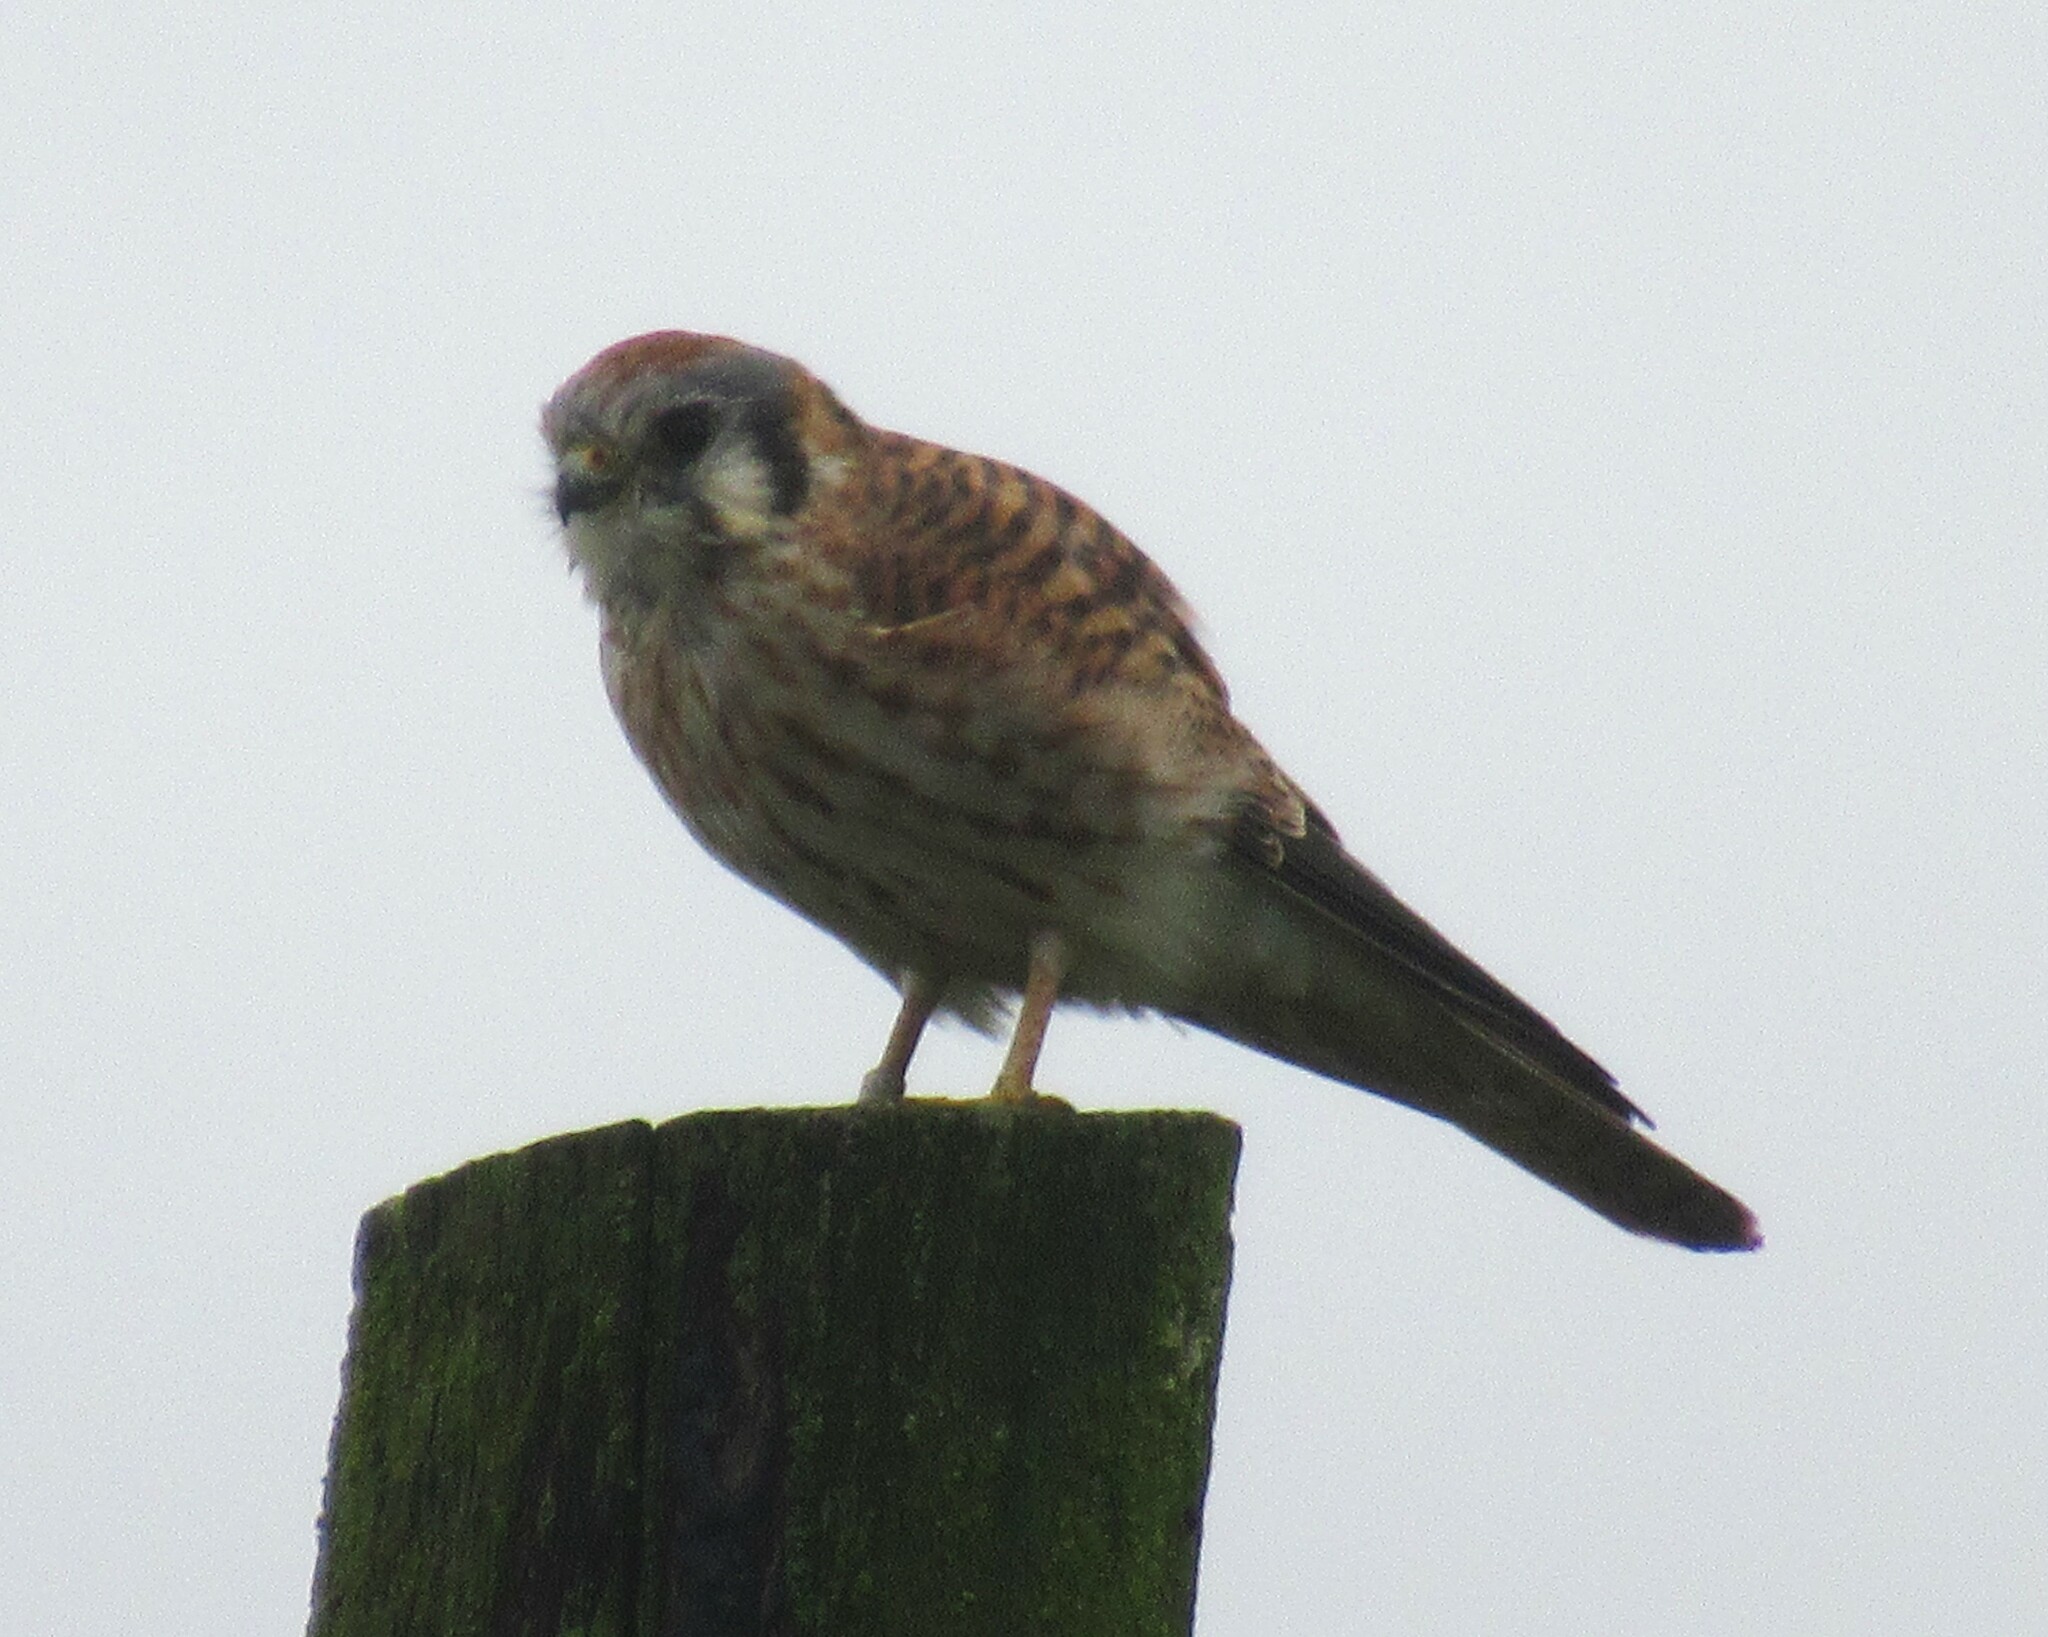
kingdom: Animalia
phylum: Chordata
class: Aves
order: Falconiformes
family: Falconidae
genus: Falco
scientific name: Falco sparverius
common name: American kestrel
